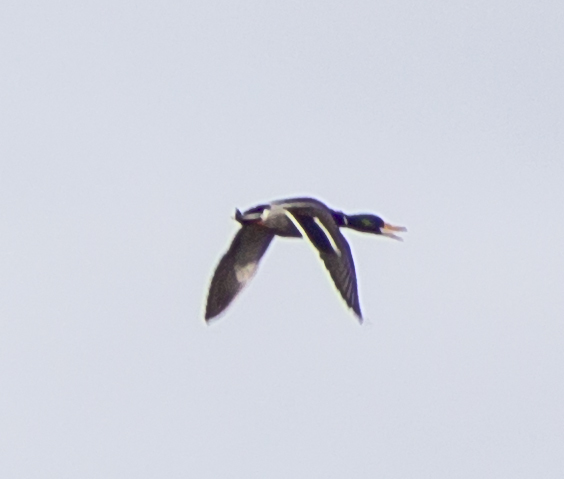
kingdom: Animalia
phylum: Chordata
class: Aves
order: Anseriformes
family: Anatidae
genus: Anas
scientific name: Anas platyrhynchos
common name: Mallard
